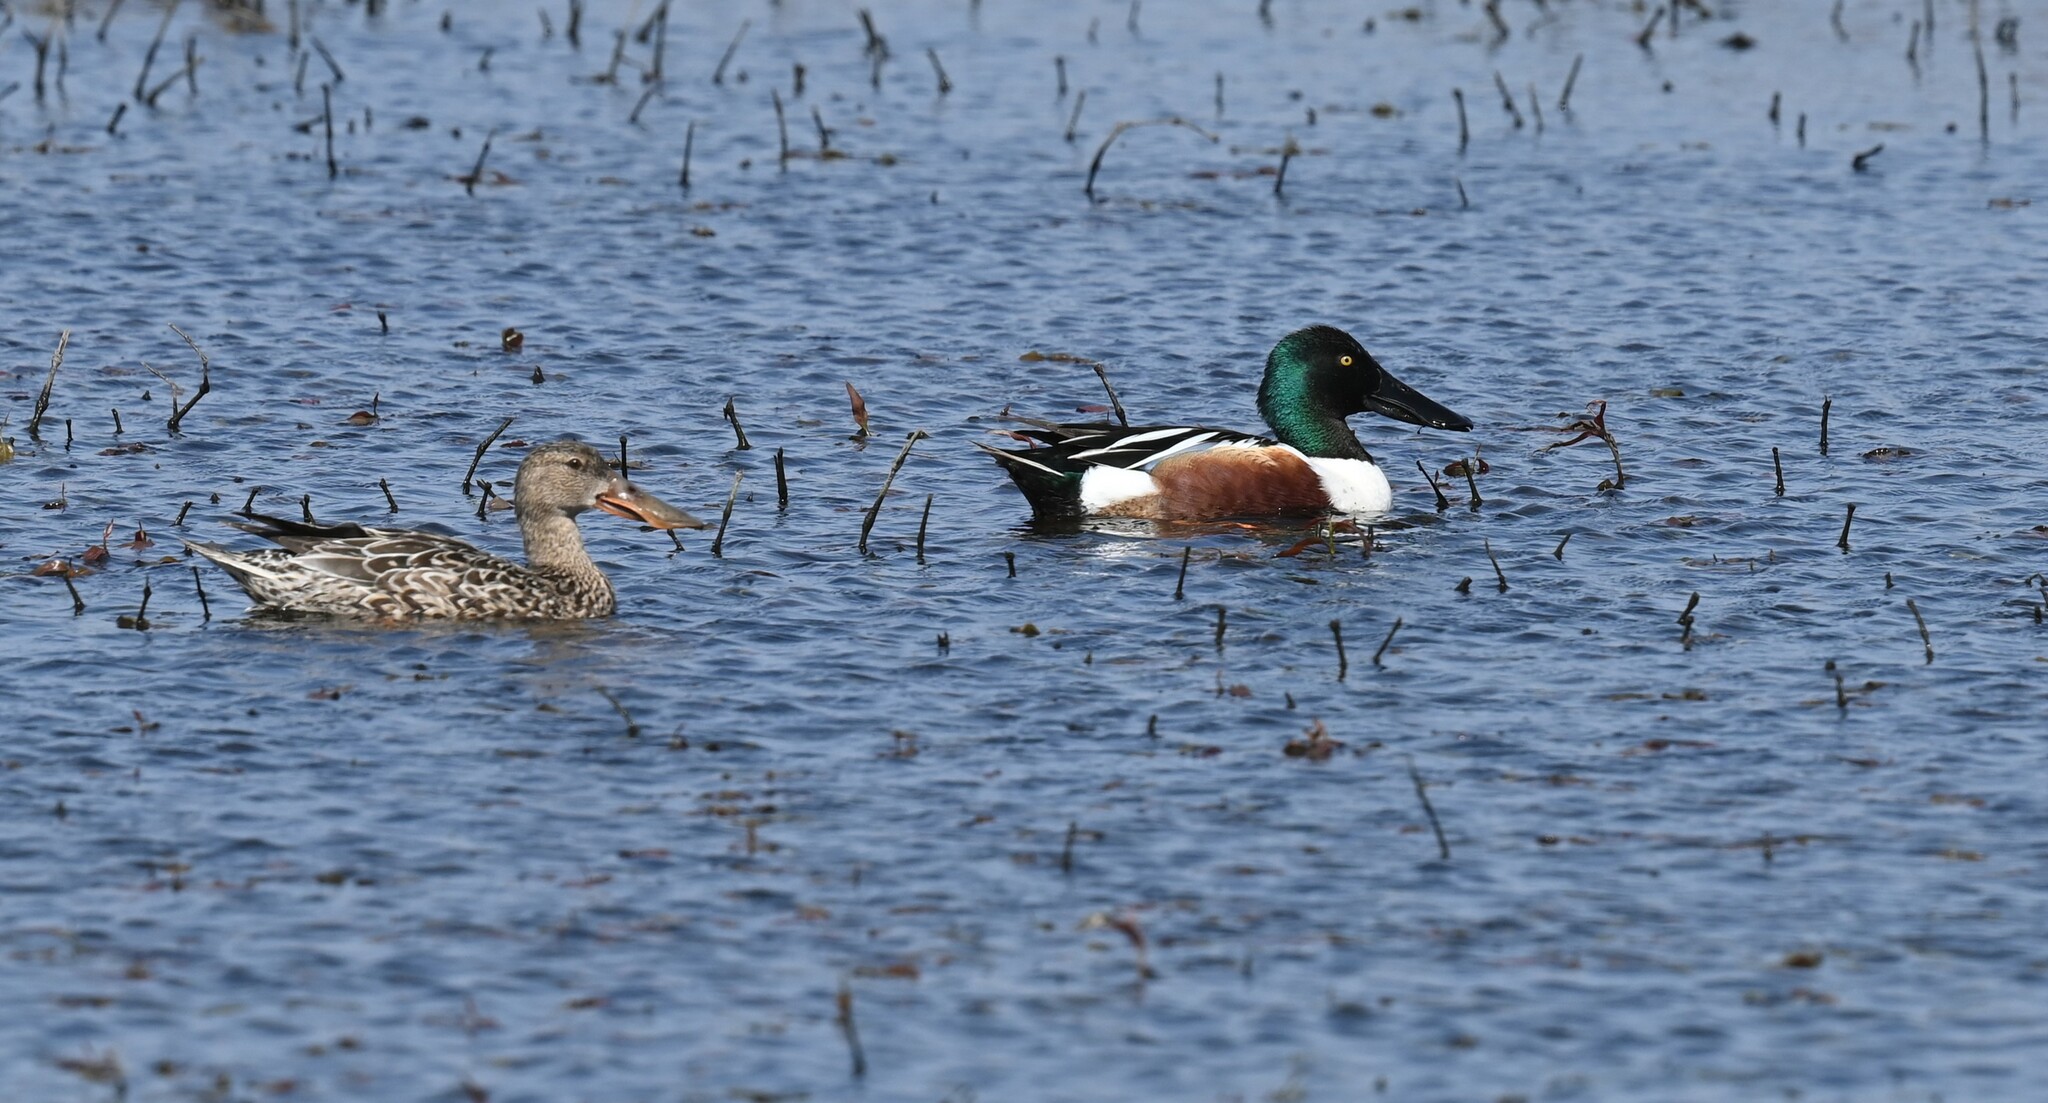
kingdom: Animalia
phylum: Chordata
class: Aves
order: Anseriformes
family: Anatidae
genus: Spatula
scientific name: Spatula clypeata
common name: Northern shoveler
